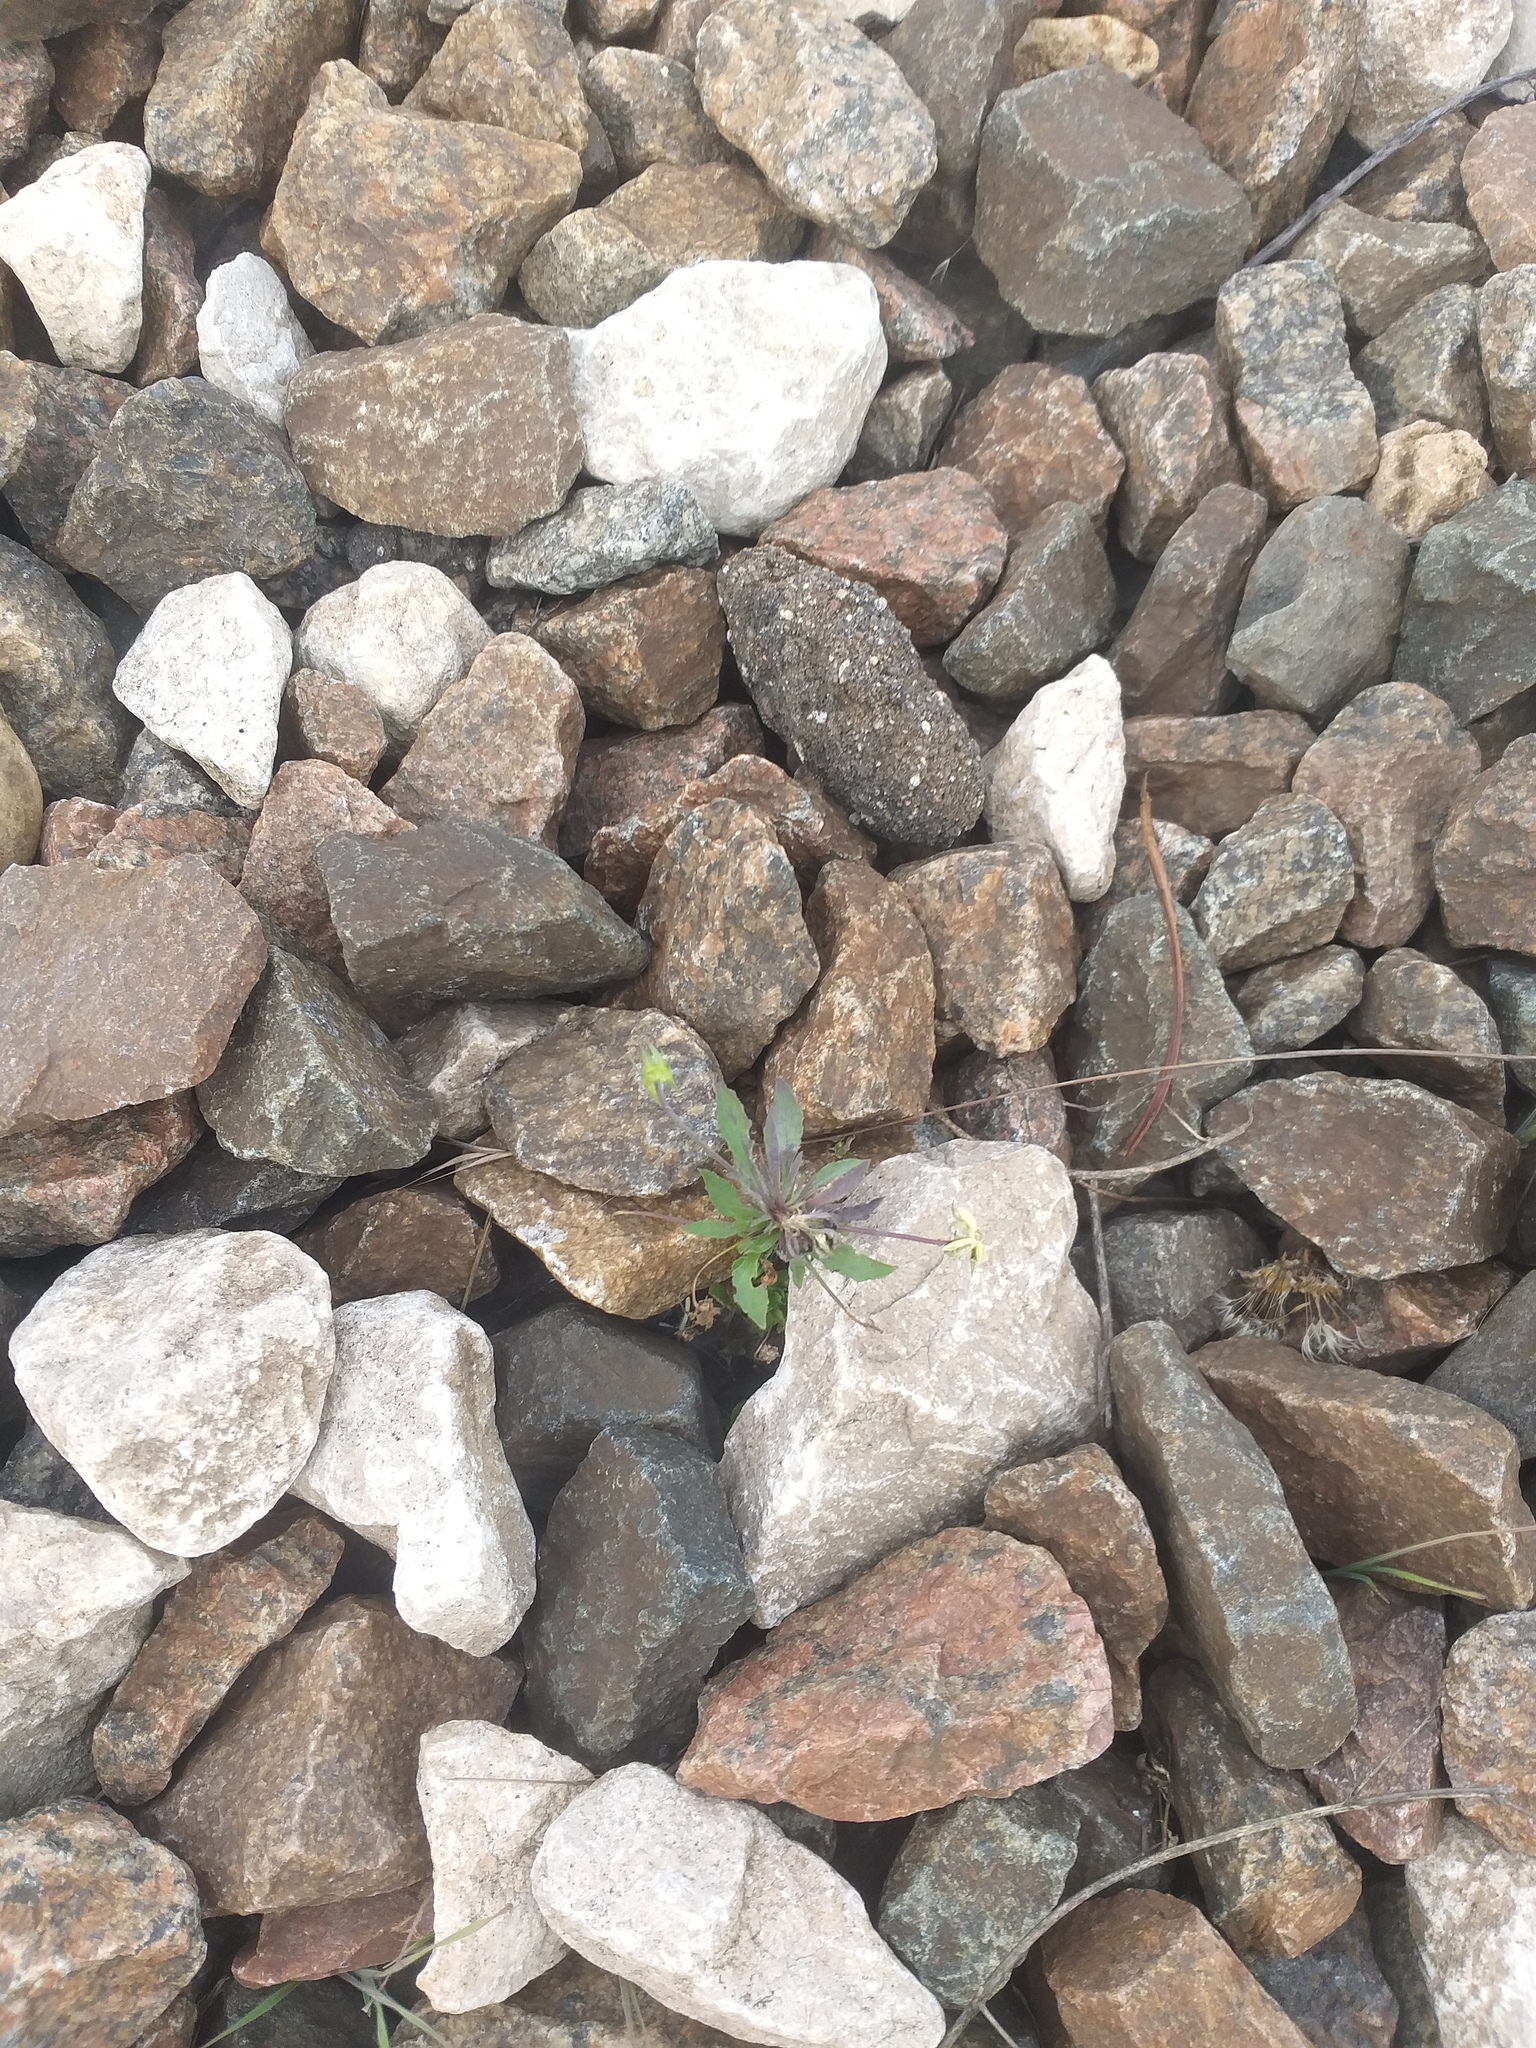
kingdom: Plantae
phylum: Tracheophyta
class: Magnoliopsida
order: Malpighiales
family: Violaceae
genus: Viola
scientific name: Viola arvensis
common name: Field pansy
